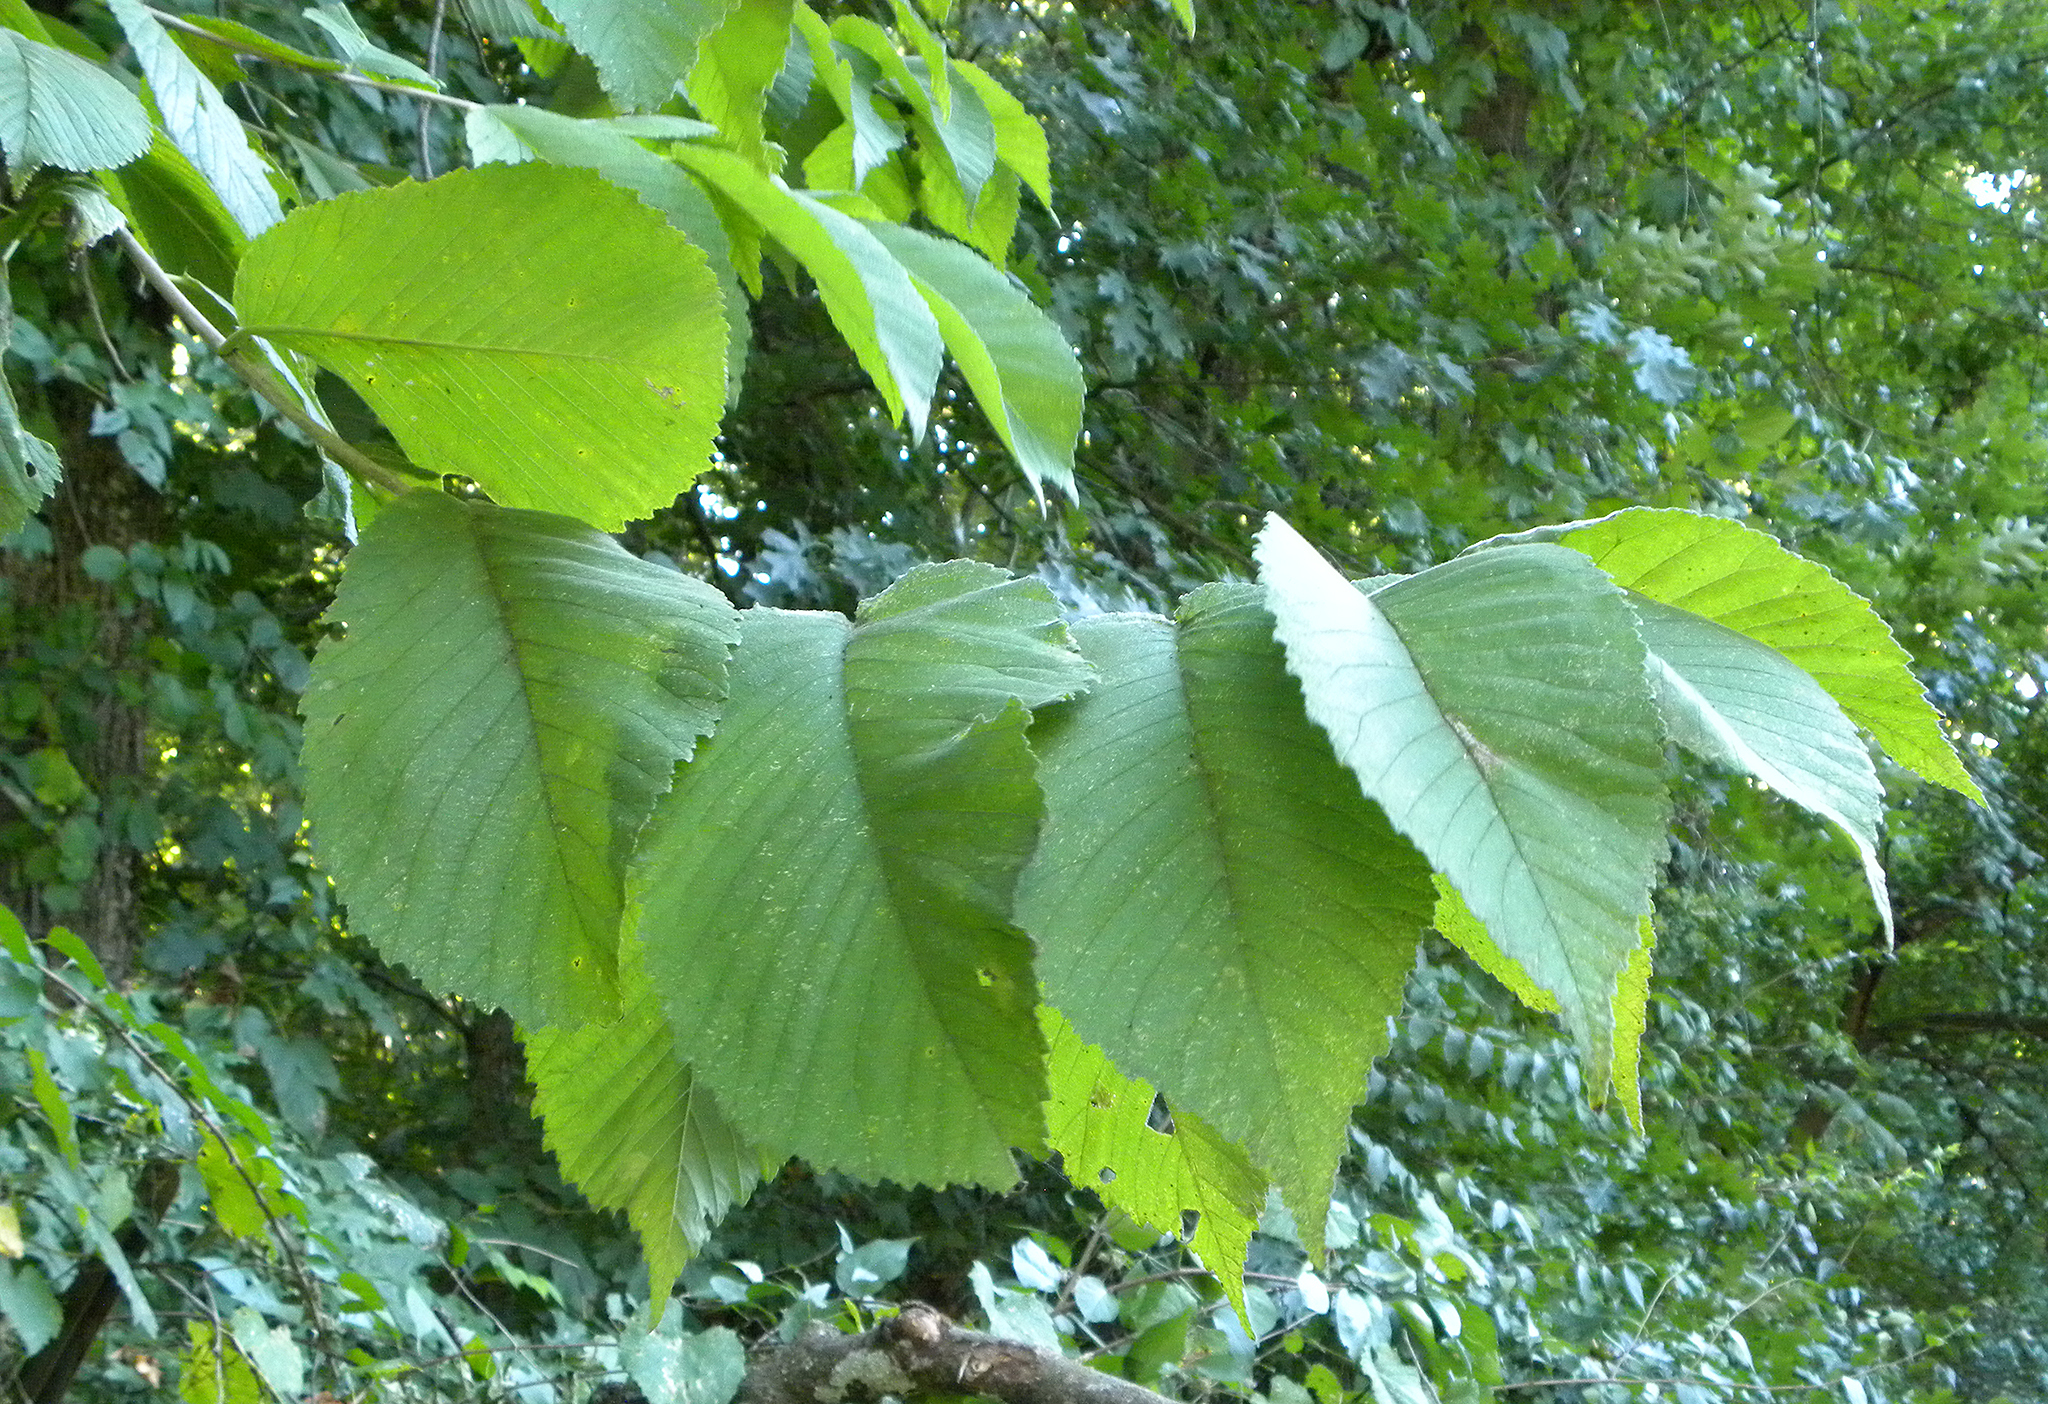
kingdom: Plantae
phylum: Tracheophyta
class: Magnoliopsida
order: Rosales
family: Ulmaceae
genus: Ulmus
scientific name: Ulmus rubra
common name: Slippery elm
